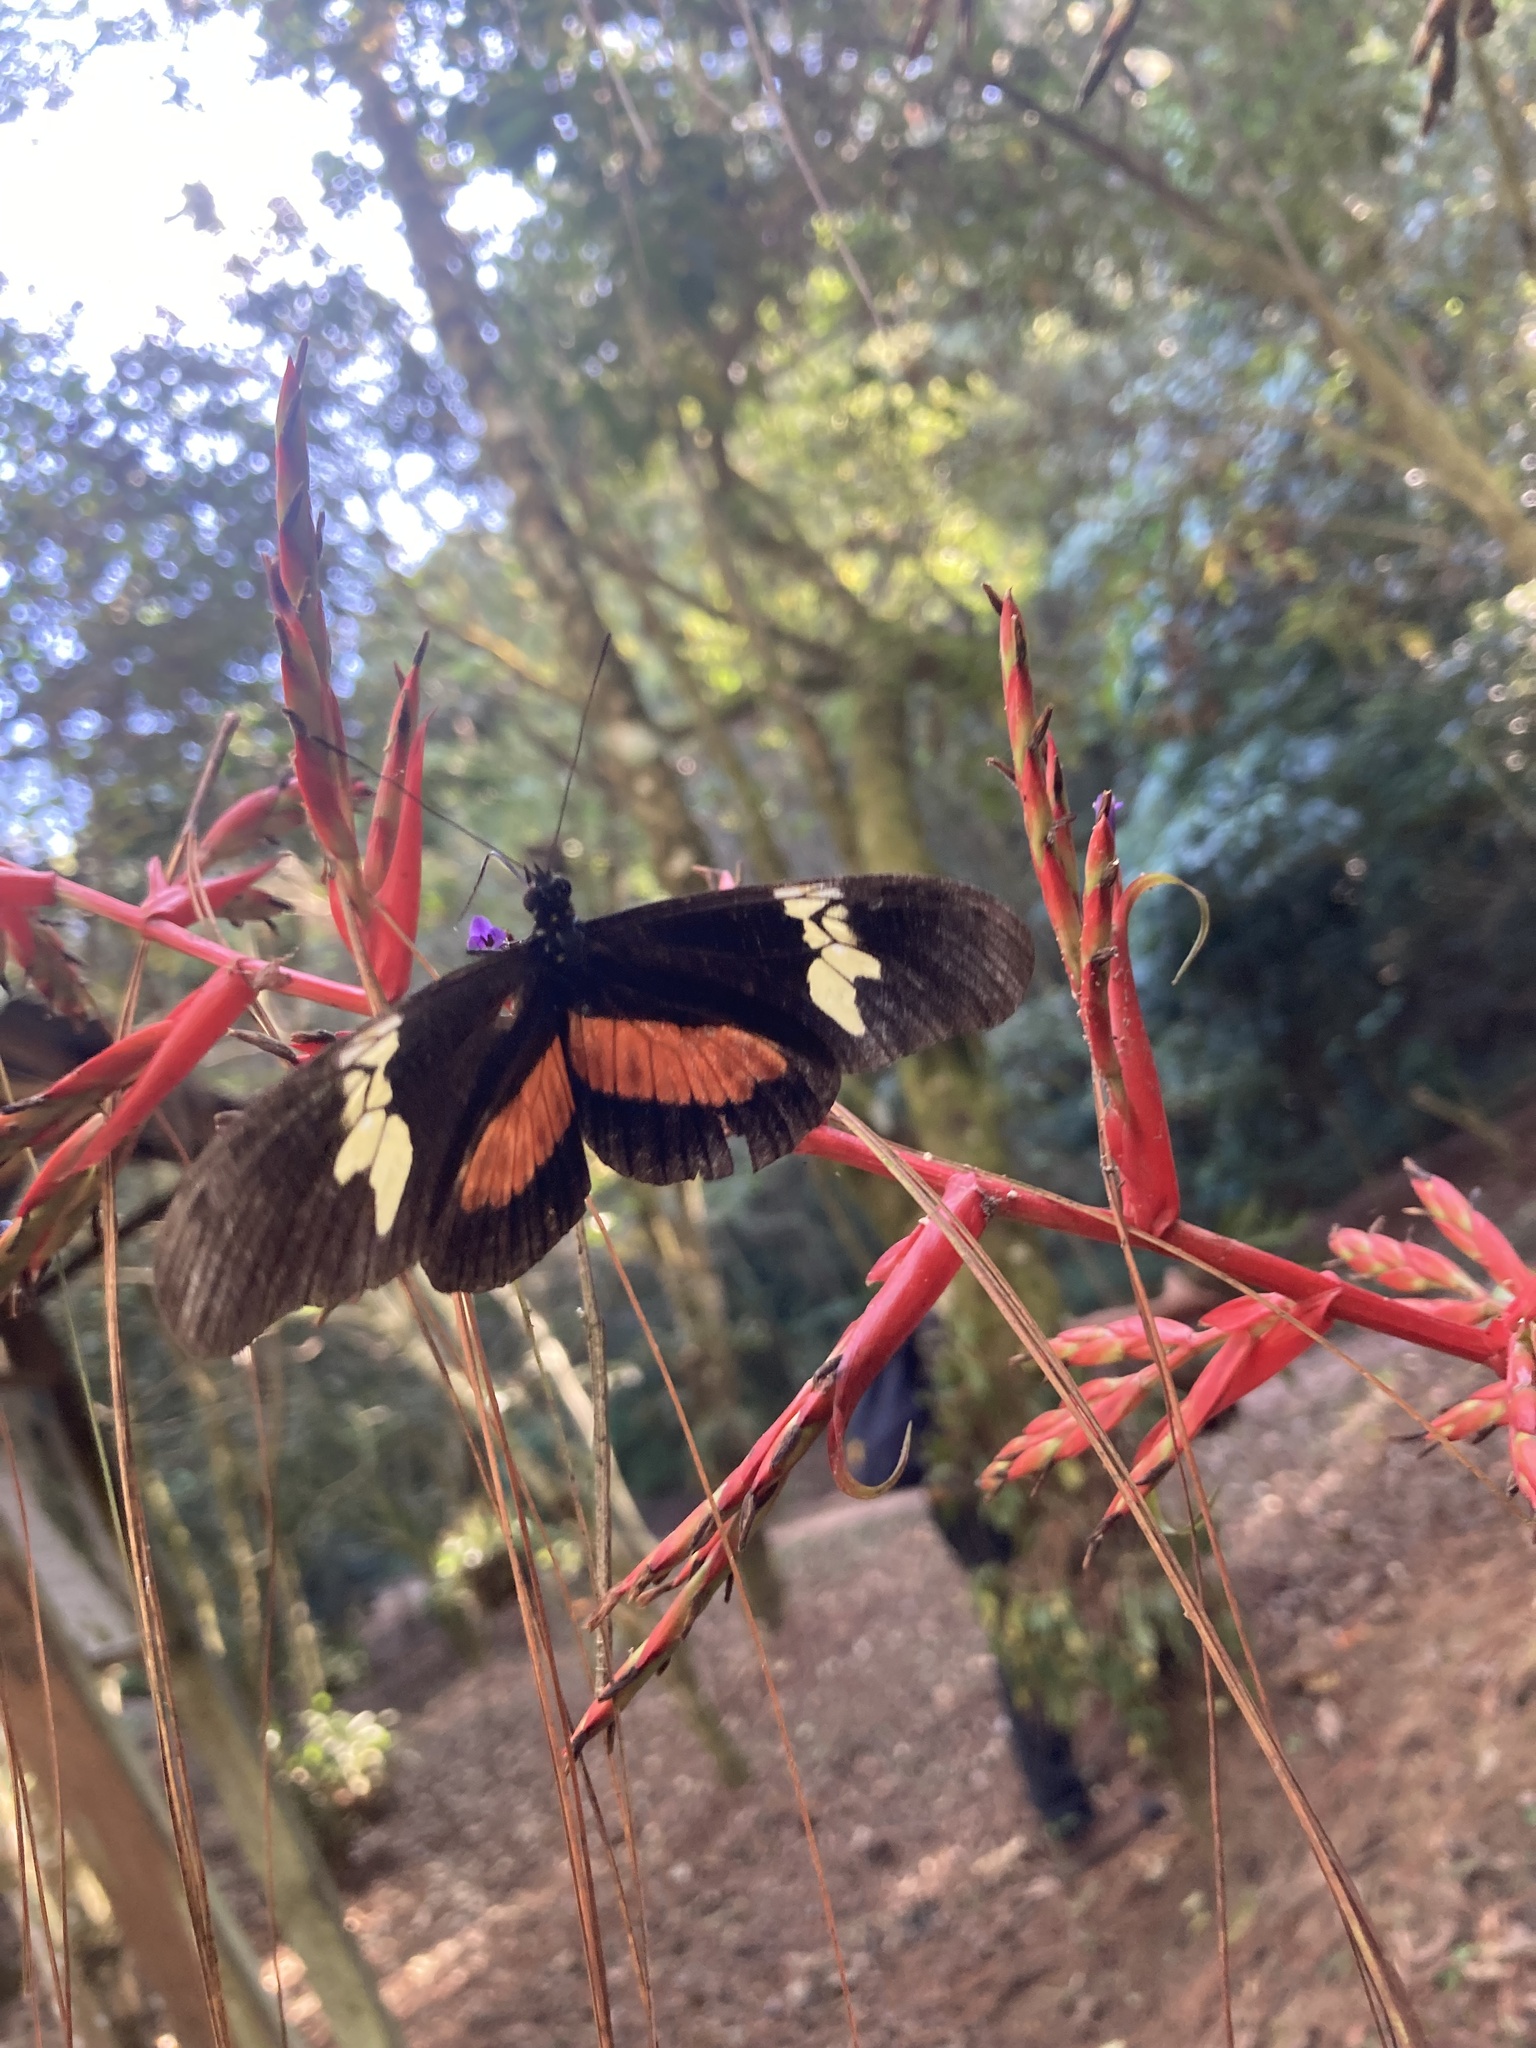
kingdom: Animalia
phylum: Arthropoda
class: Insecta
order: Lepidoptera
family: Nymphalidae
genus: Heliconius
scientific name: Heliconius hortense
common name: Mexican longwing
